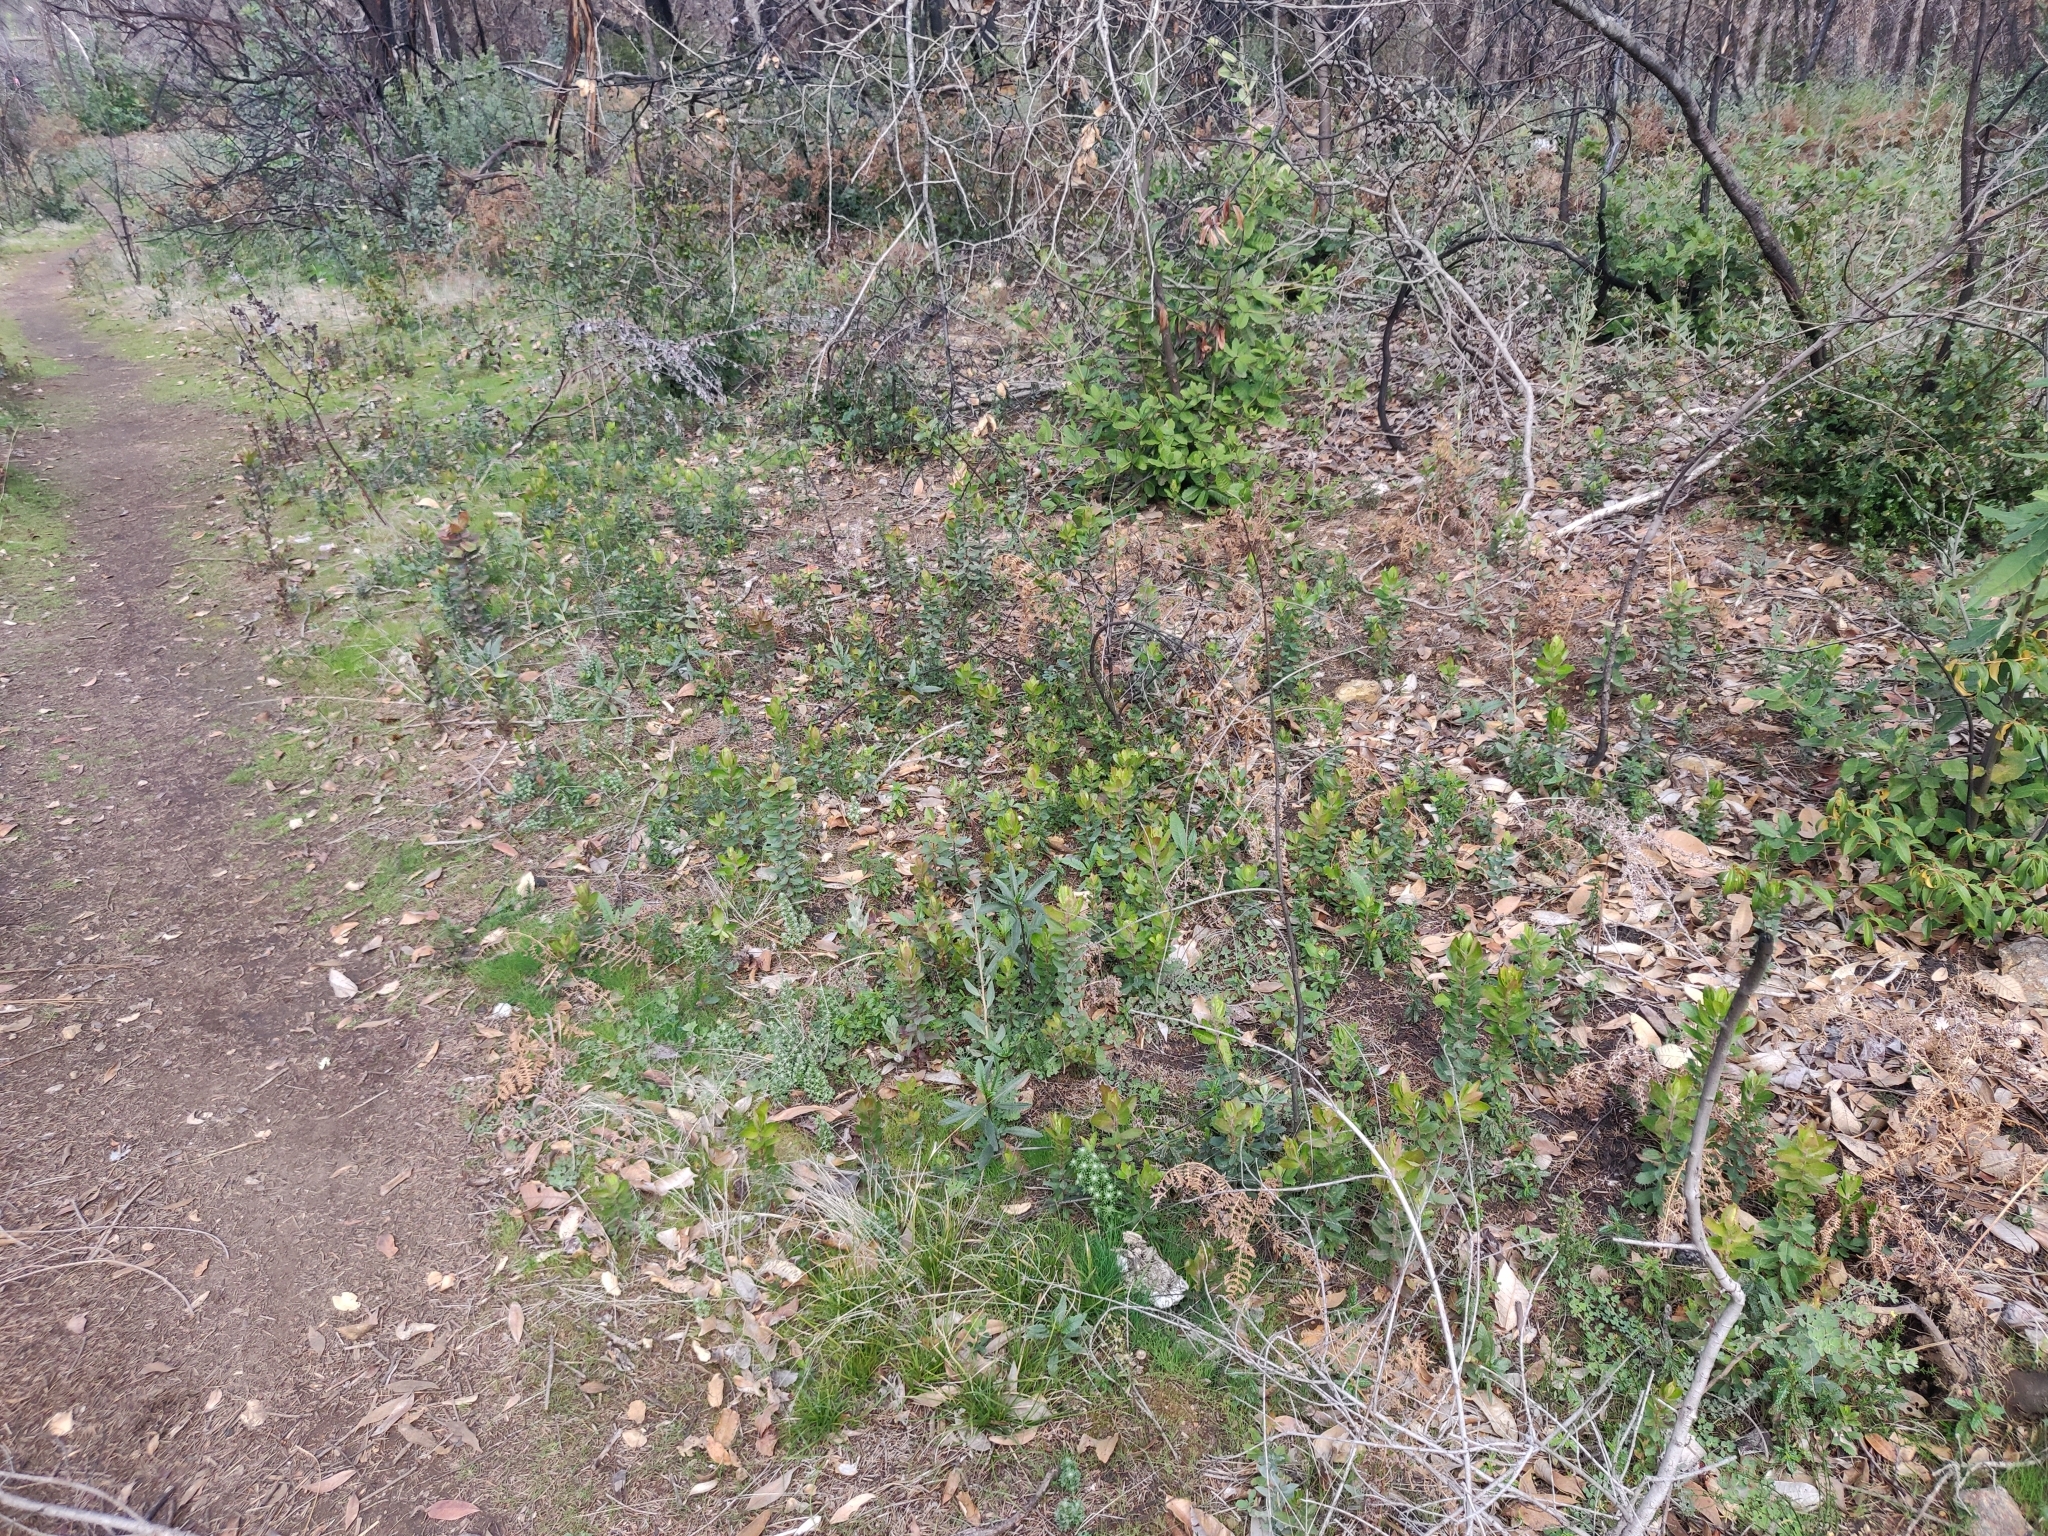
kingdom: Plantae
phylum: Tracheophyta
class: Magnoliopsida
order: Ericales
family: Ericaceae
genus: Arctostaphylos
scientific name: Arctostaphylos andersonii
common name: Santa cruz manzanita
